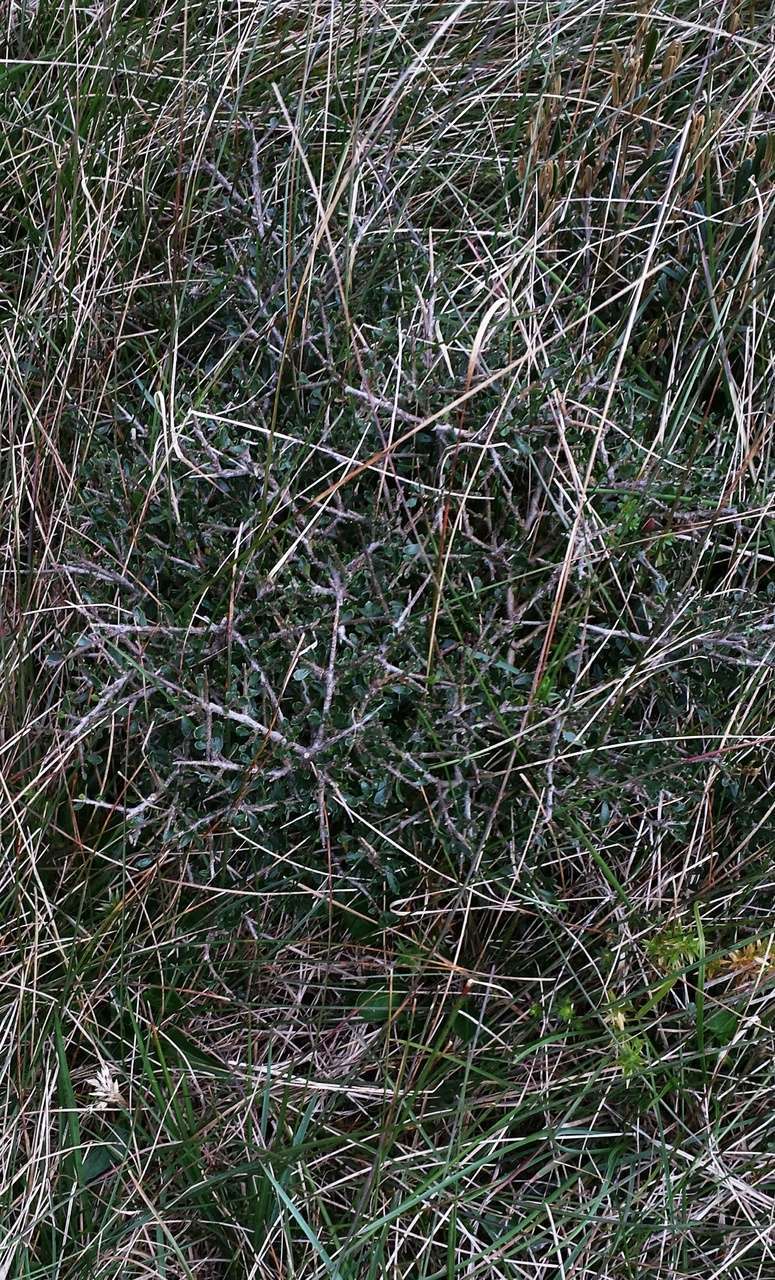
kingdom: Plantae
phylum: Tracheophyta
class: Magnoliopsida
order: Malpighiales
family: Violaceae
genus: Melicytus
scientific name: Melicytus angustifolius
